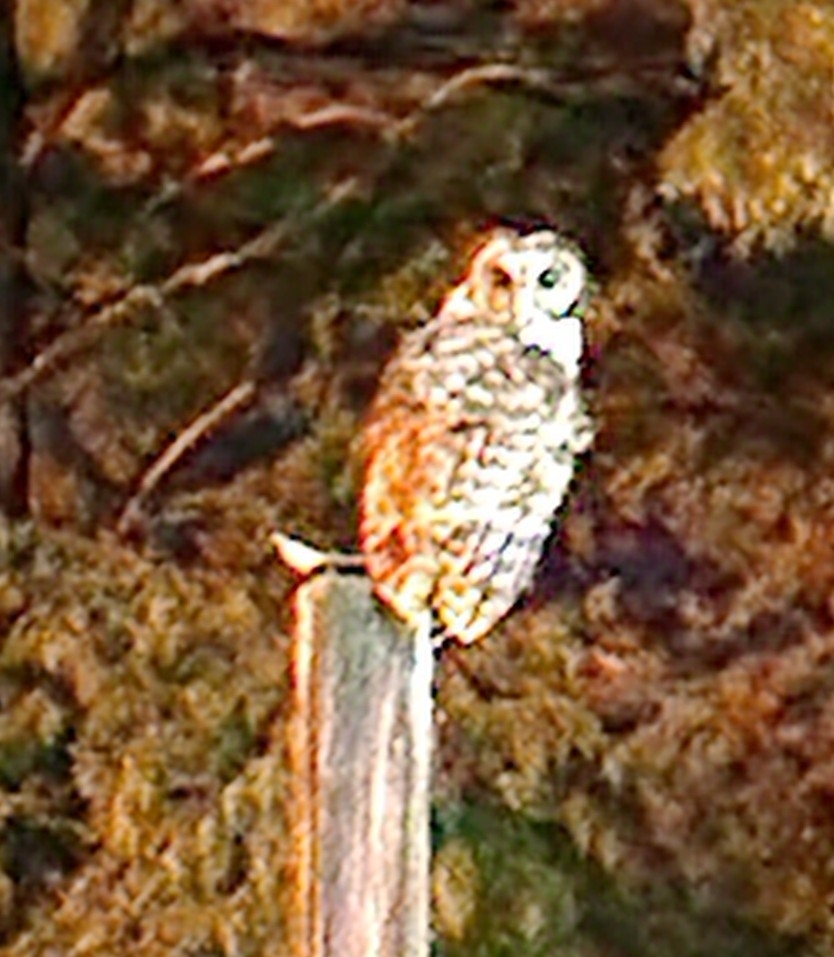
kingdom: Animalia
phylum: Chordata
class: Aves
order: Strigiformes
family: Strigidae
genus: Strix
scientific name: Strix varia
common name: Barred owl
